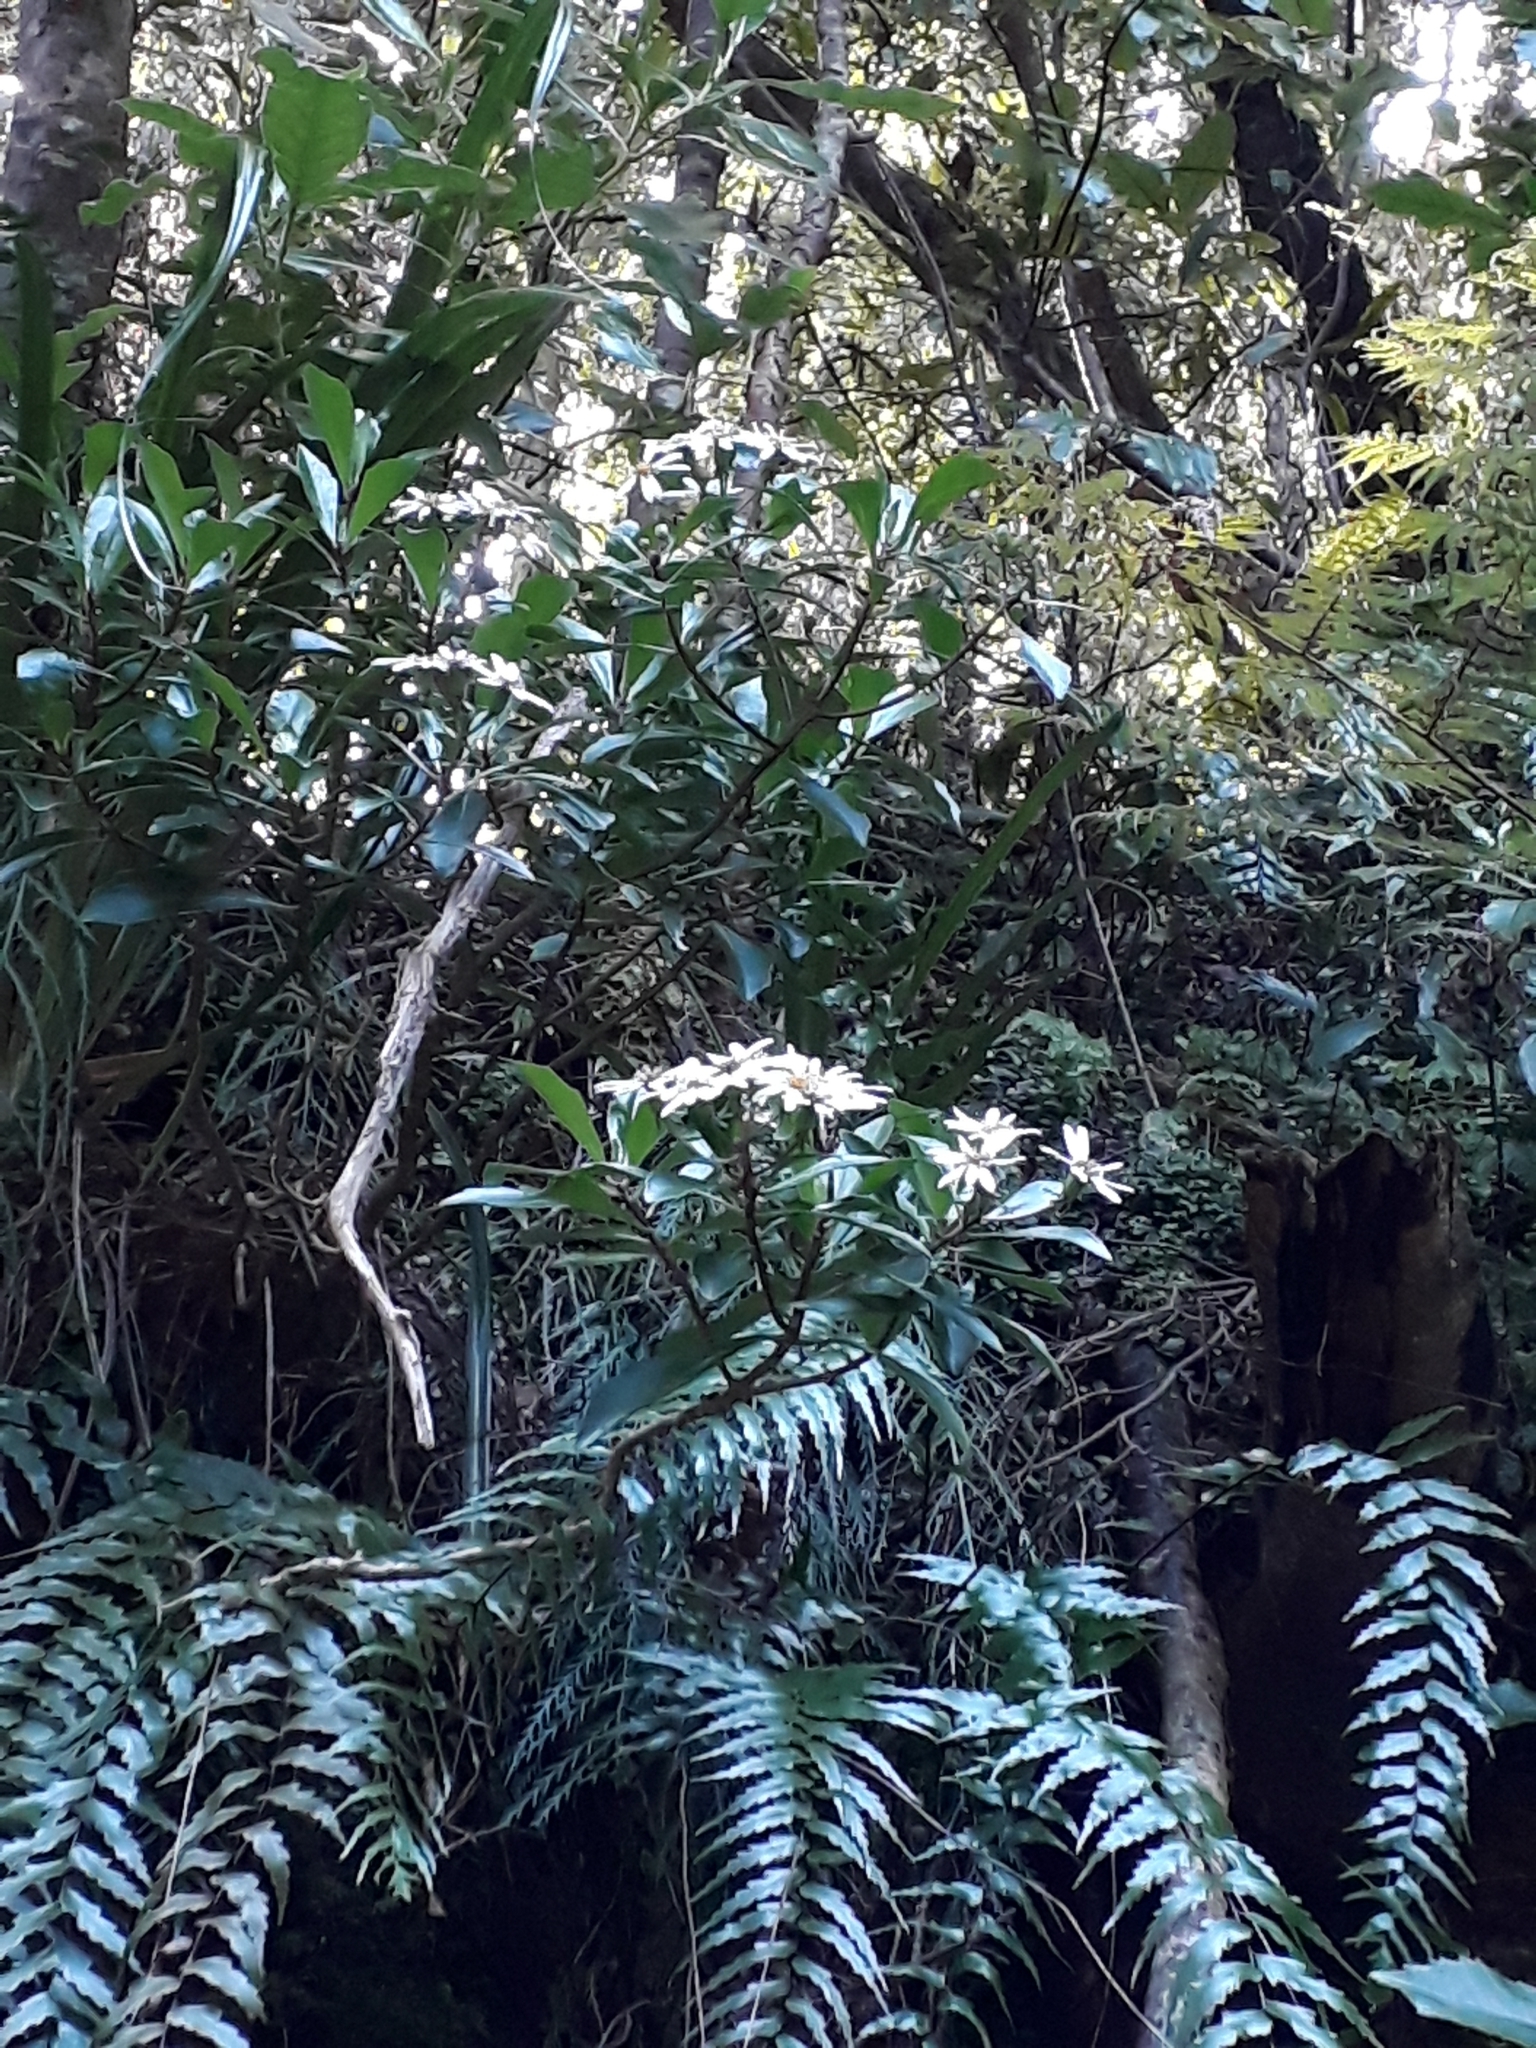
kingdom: Plantae
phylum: Tracheophyta
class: Magnoliopsida
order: Asterales
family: Asteraceae
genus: Brachyglottis
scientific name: Brachyglottis kirkii
